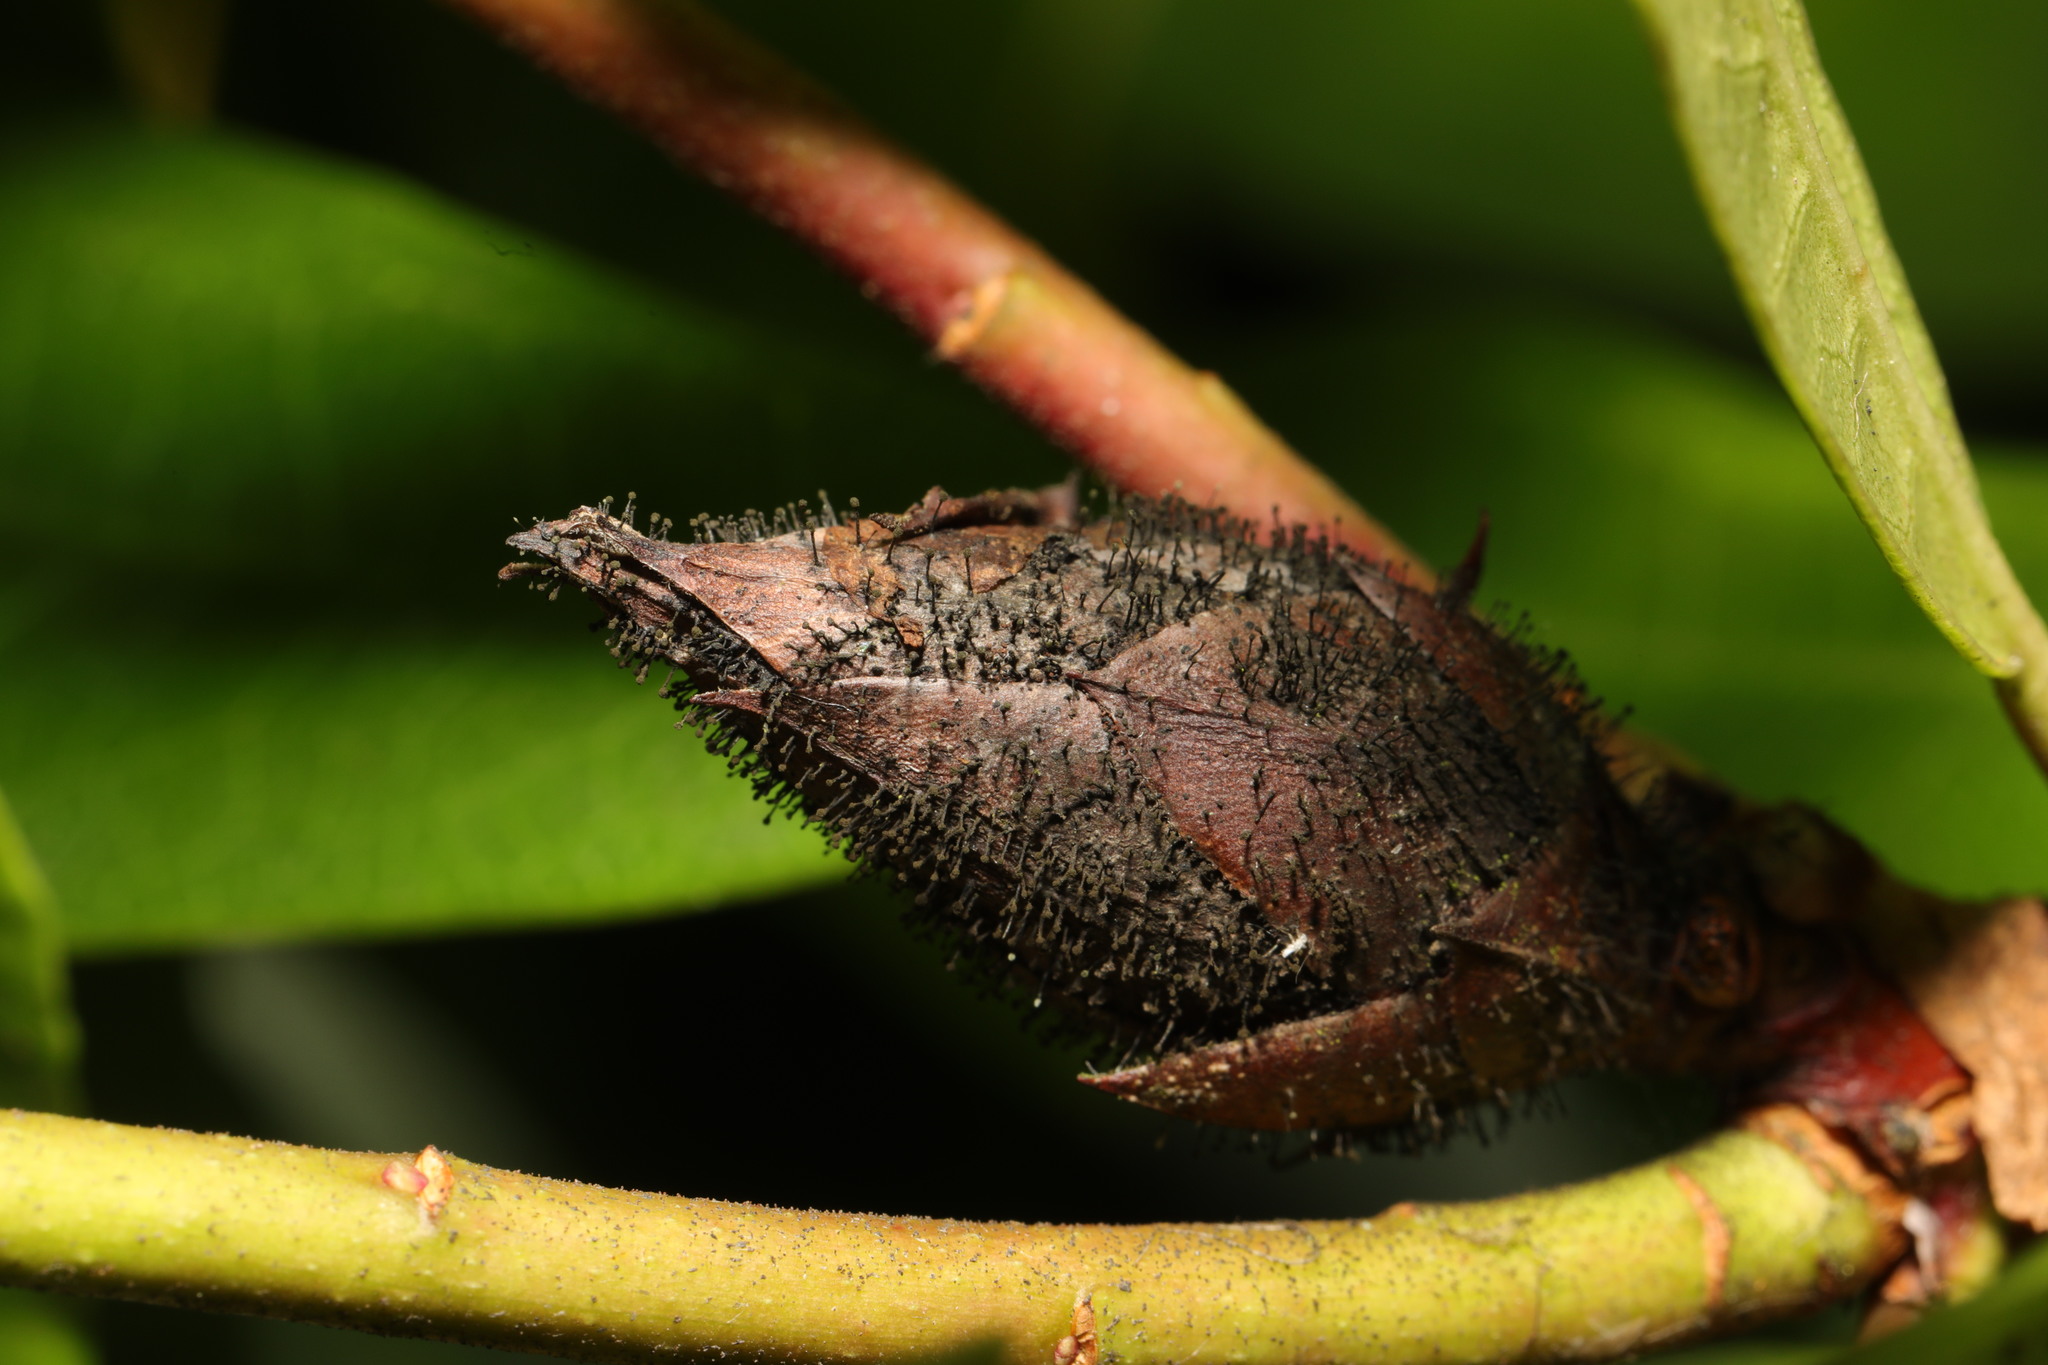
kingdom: Fungi
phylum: Ascomycota
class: Dothideomycetes
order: Pleosporales
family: Melanommataceae
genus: Seifertia
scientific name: Seifertia azaleae
